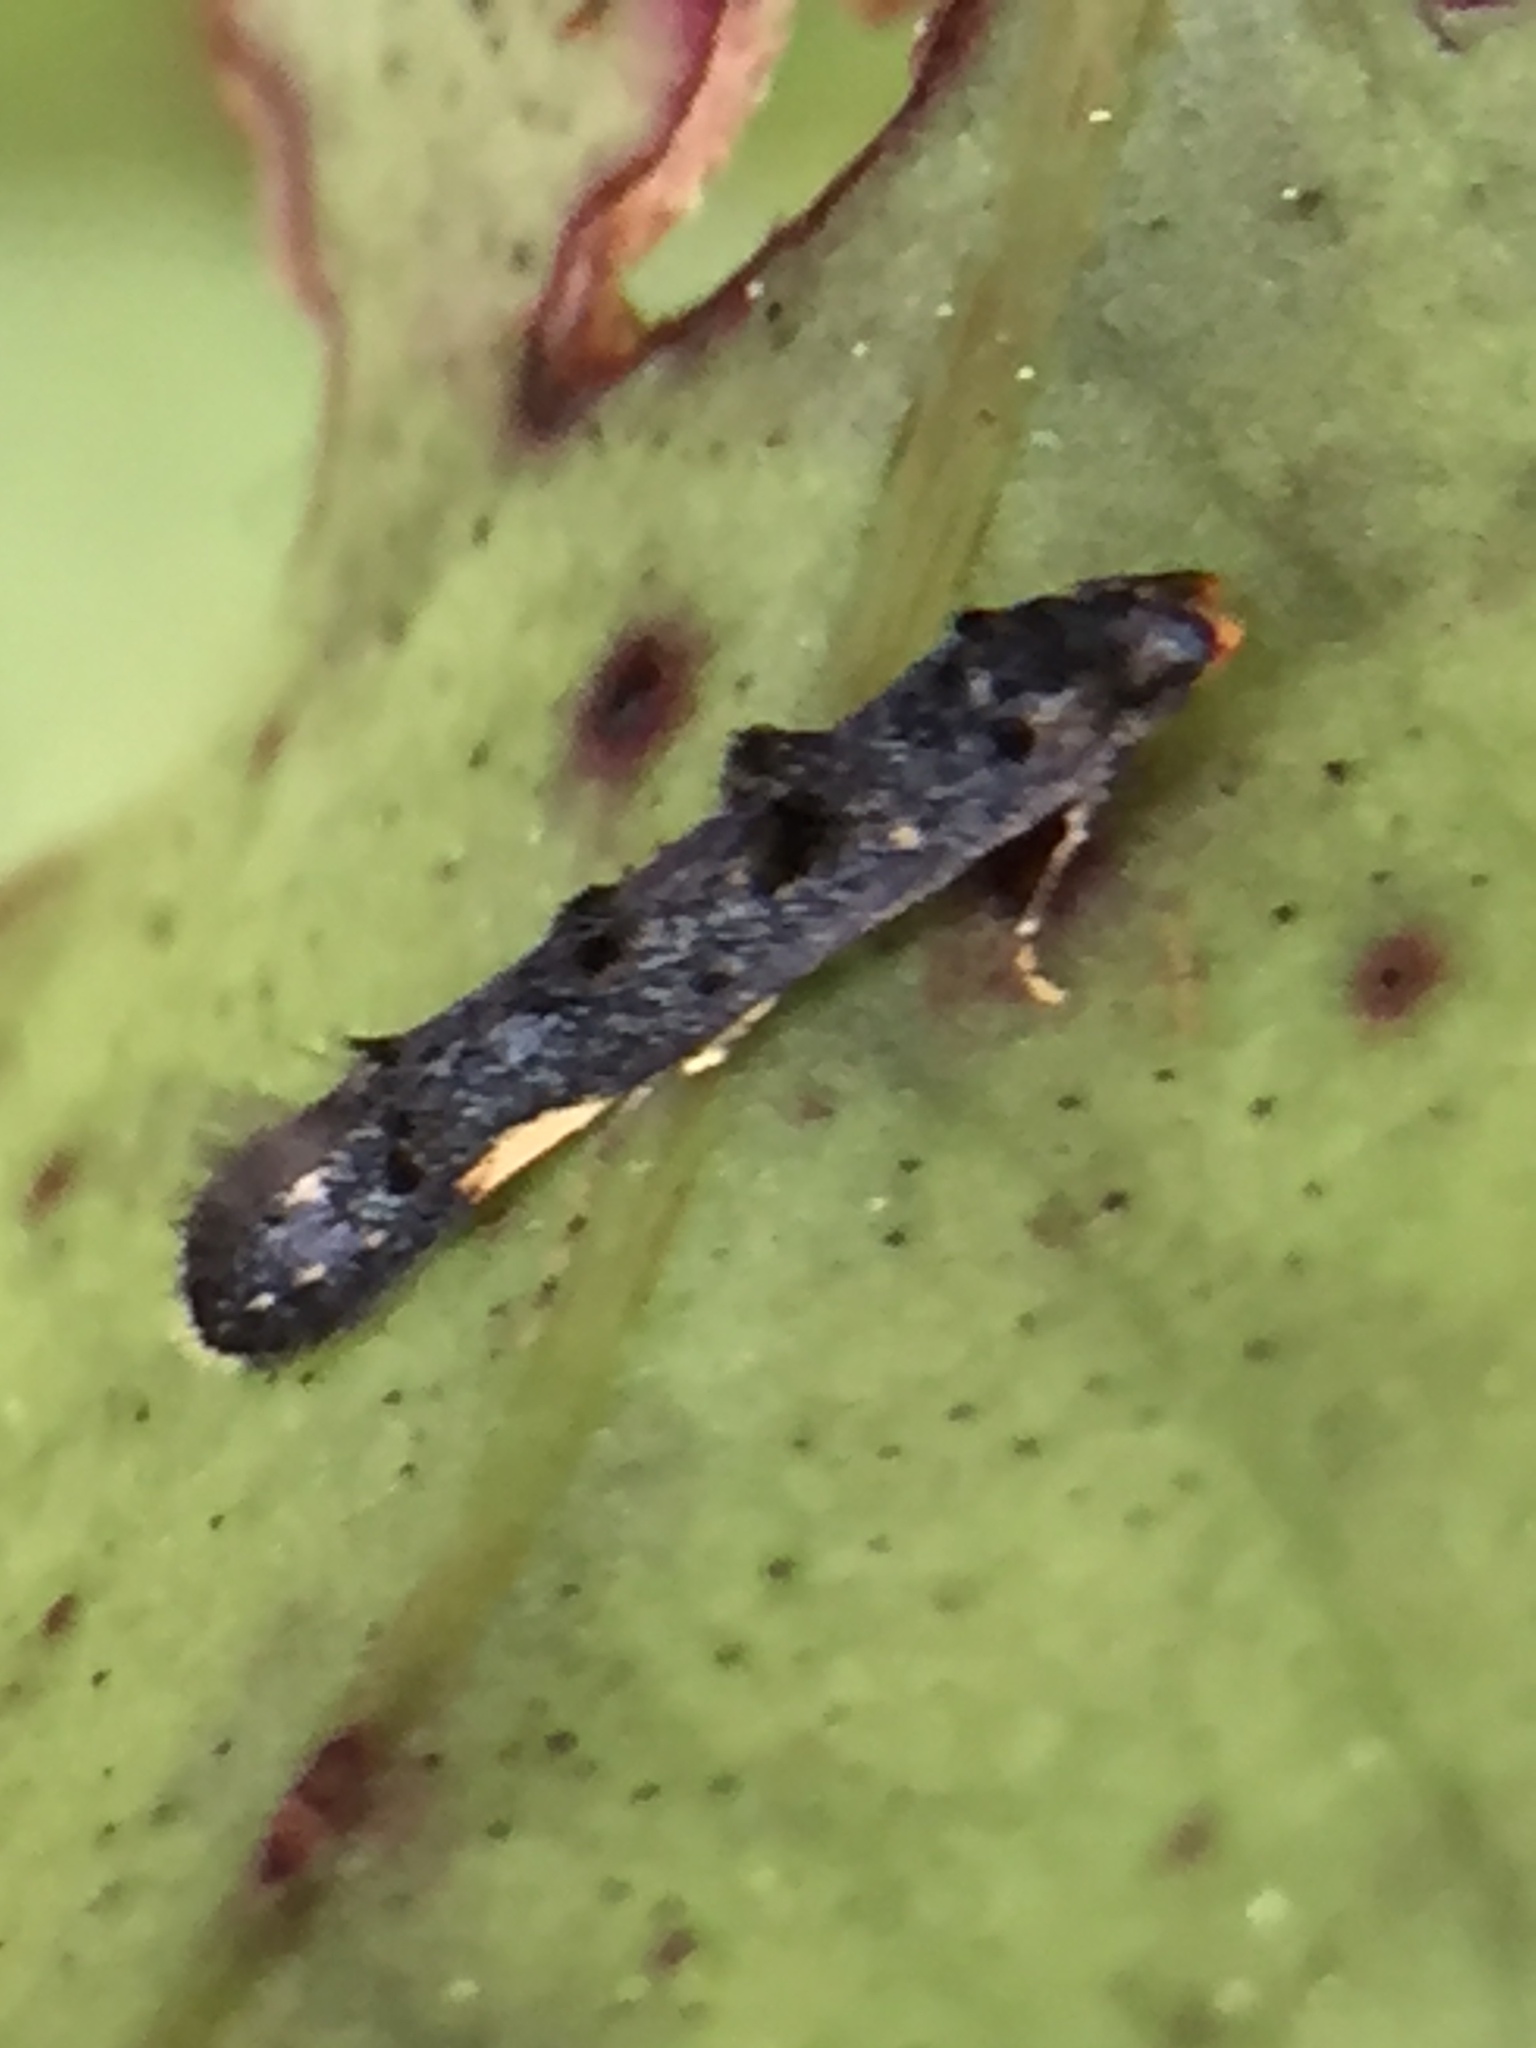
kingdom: Animalia
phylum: Arthropoda
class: Insecta
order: Lepidoptera
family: Elachistidae
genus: Microcolona
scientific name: Microcolona
